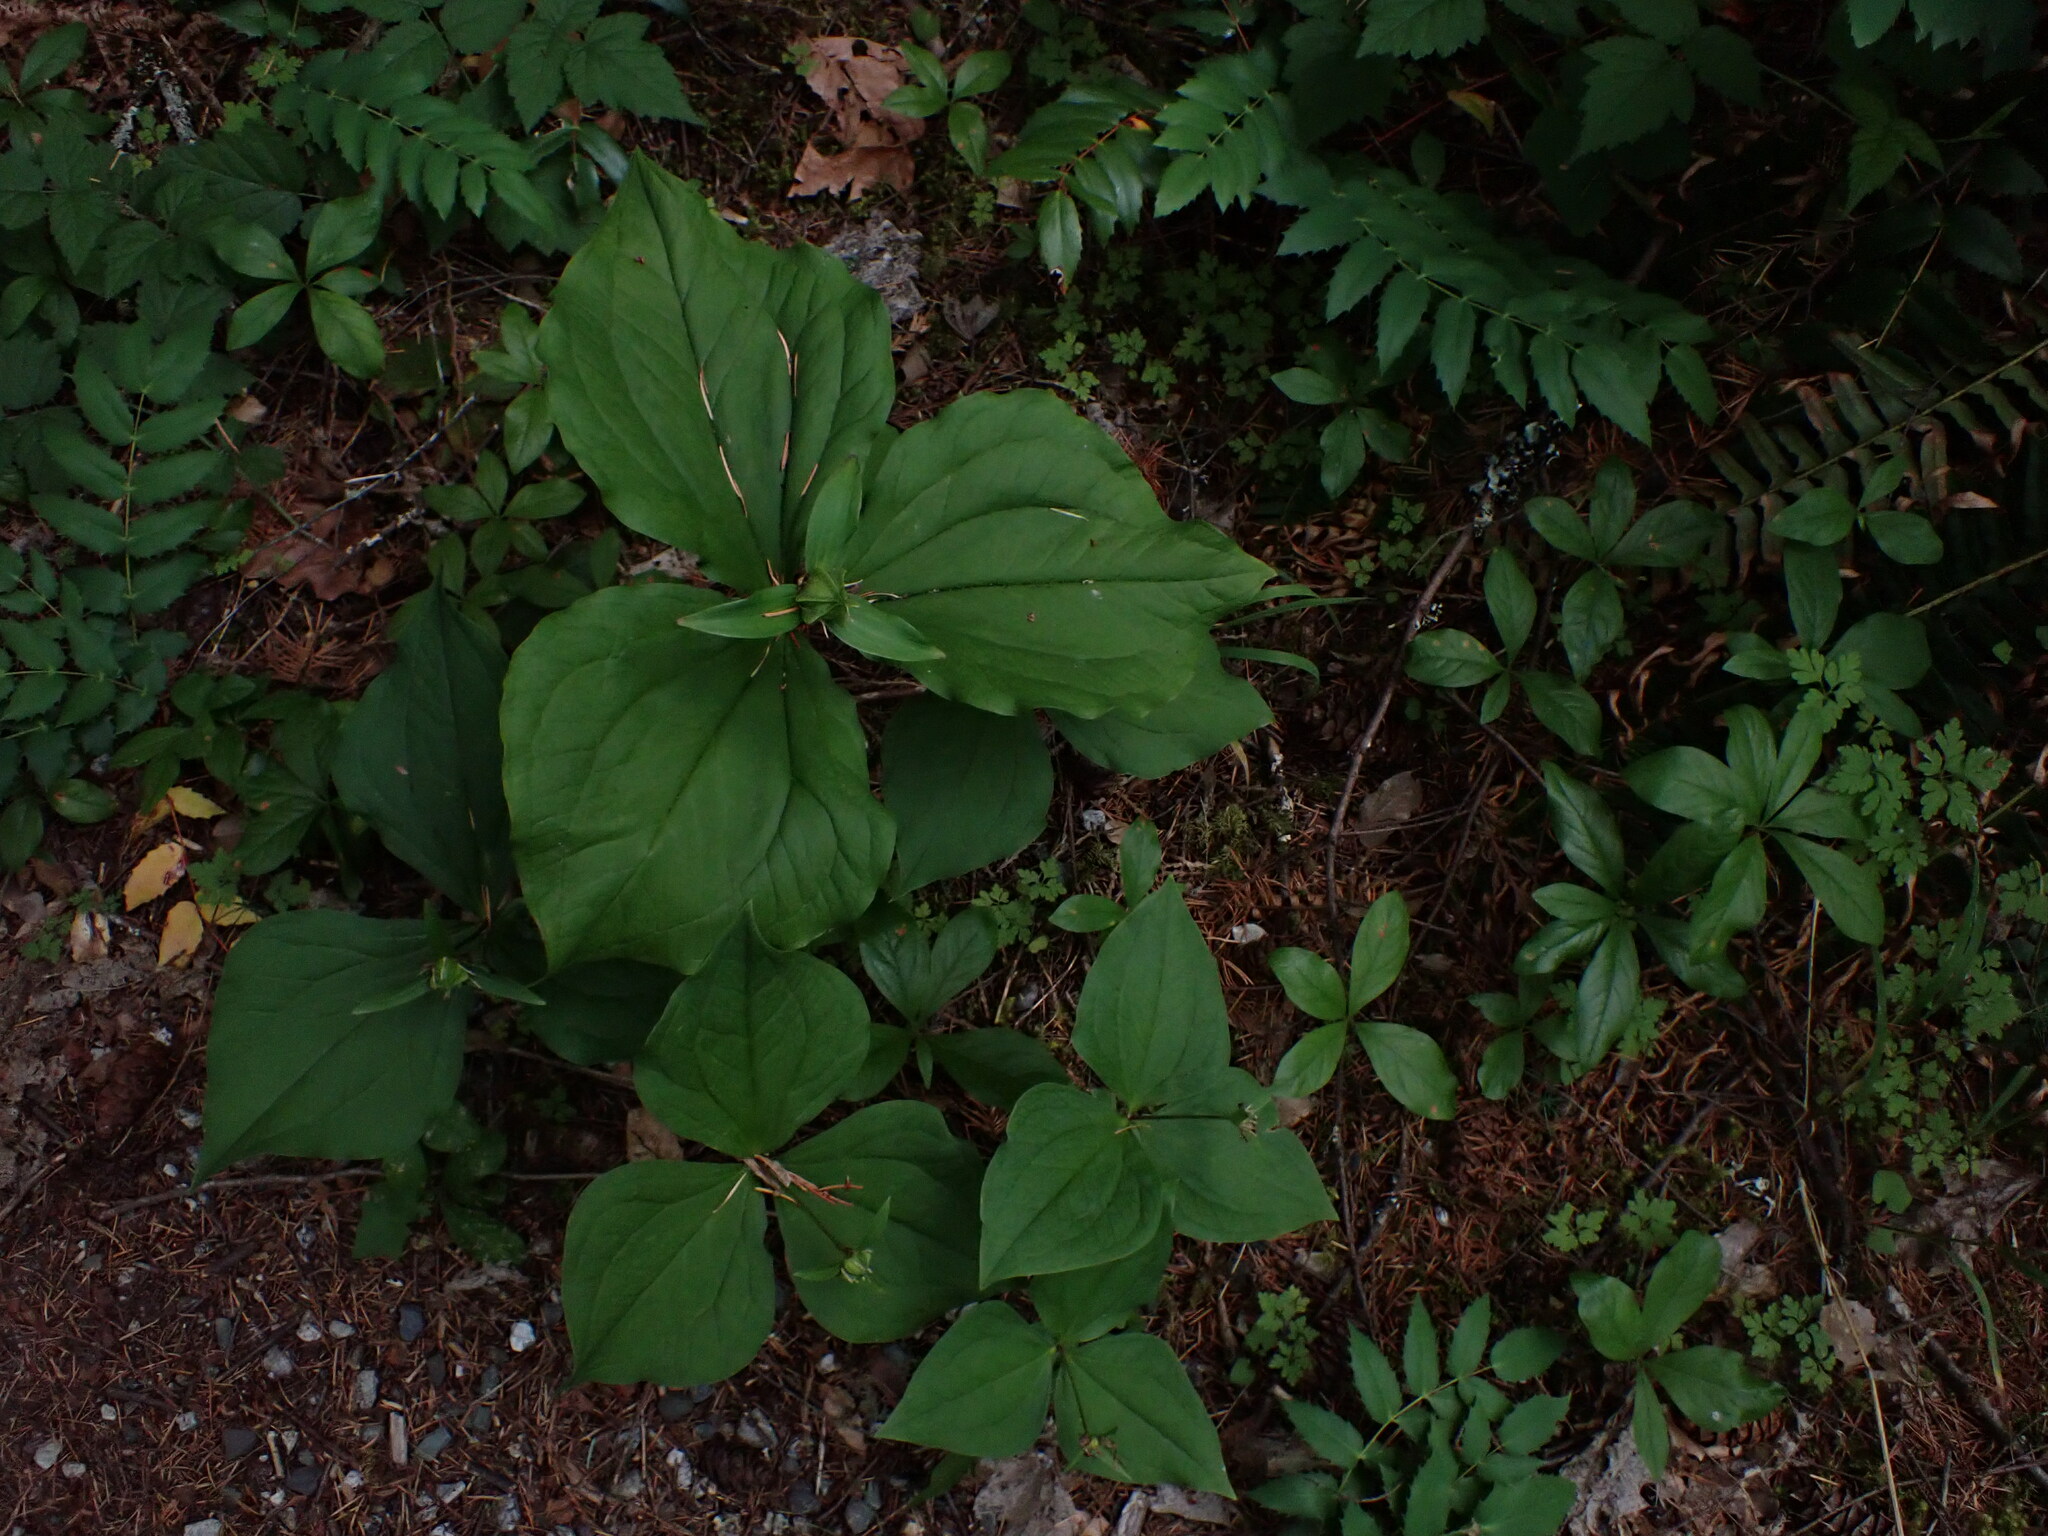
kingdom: Plantae
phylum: Tracheophyta
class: Liliopsida
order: Liliales
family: Melanthiaceae
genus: Trillium
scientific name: Trillium ovatum
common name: Pacific trillium
